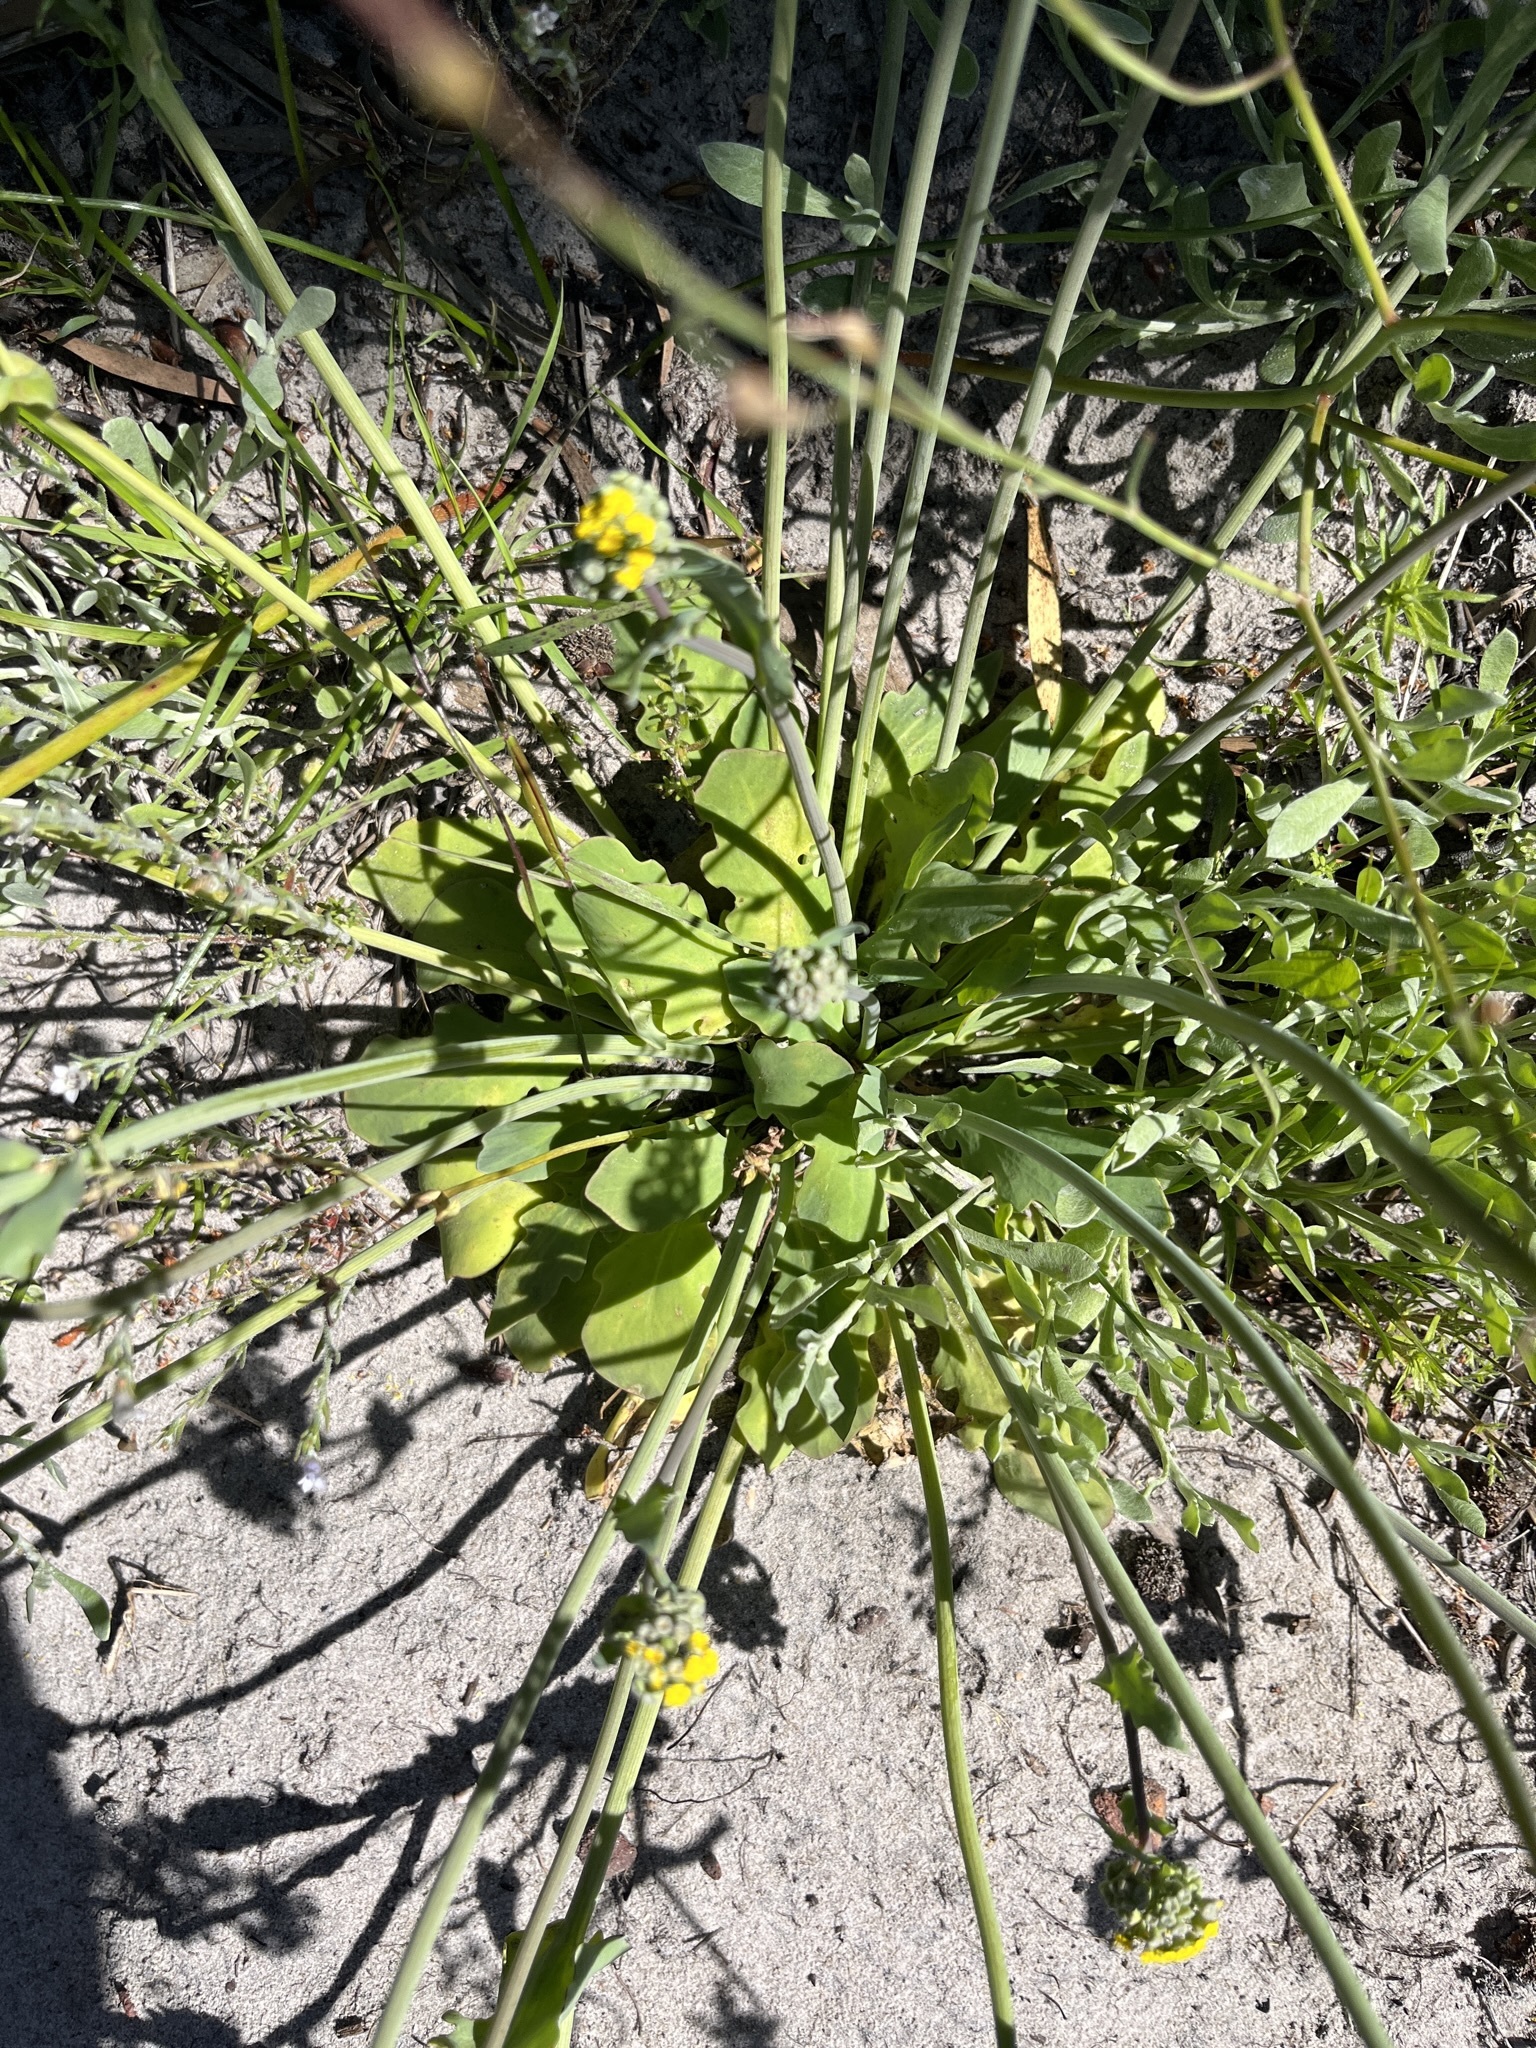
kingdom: Plantae
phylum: Tracheophyta
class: Magnoliopsida
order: Asterales
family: Asteraceae
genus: Gymnodiscus
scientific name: Gymnodiscus capillaris
